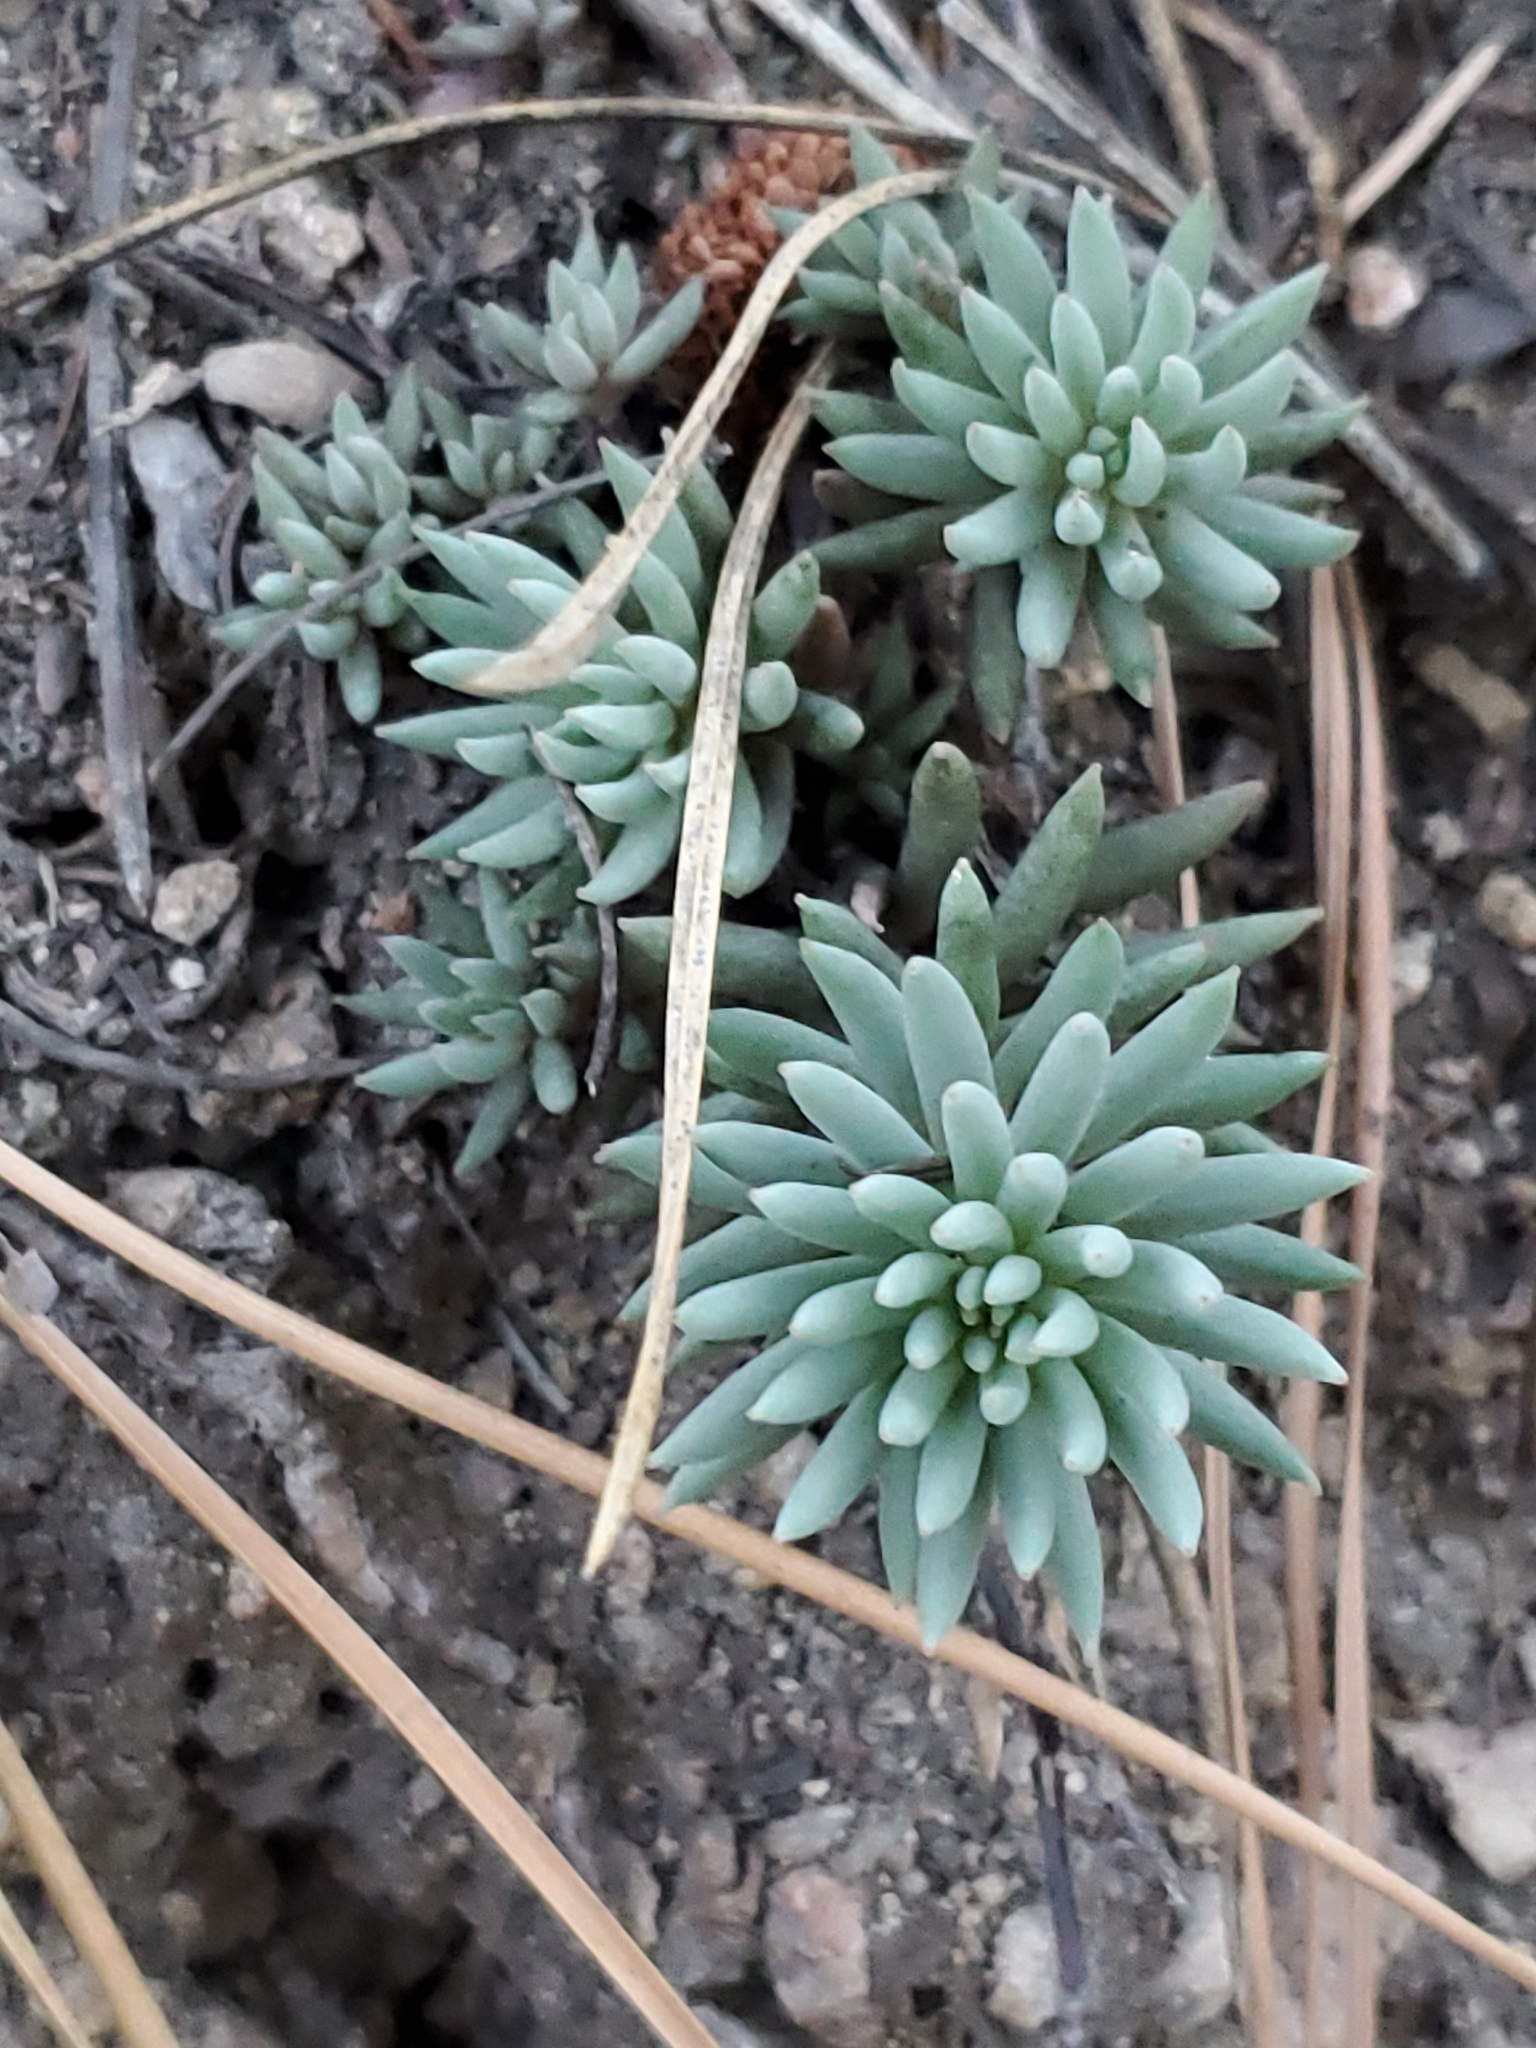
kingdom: Plantae
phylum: Tracheophyta
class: Magnoliopsida
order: Saxifragales
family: Crassulaceae
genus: Sedum
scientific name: Sedum lanceolatum
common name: Common stonecrop
